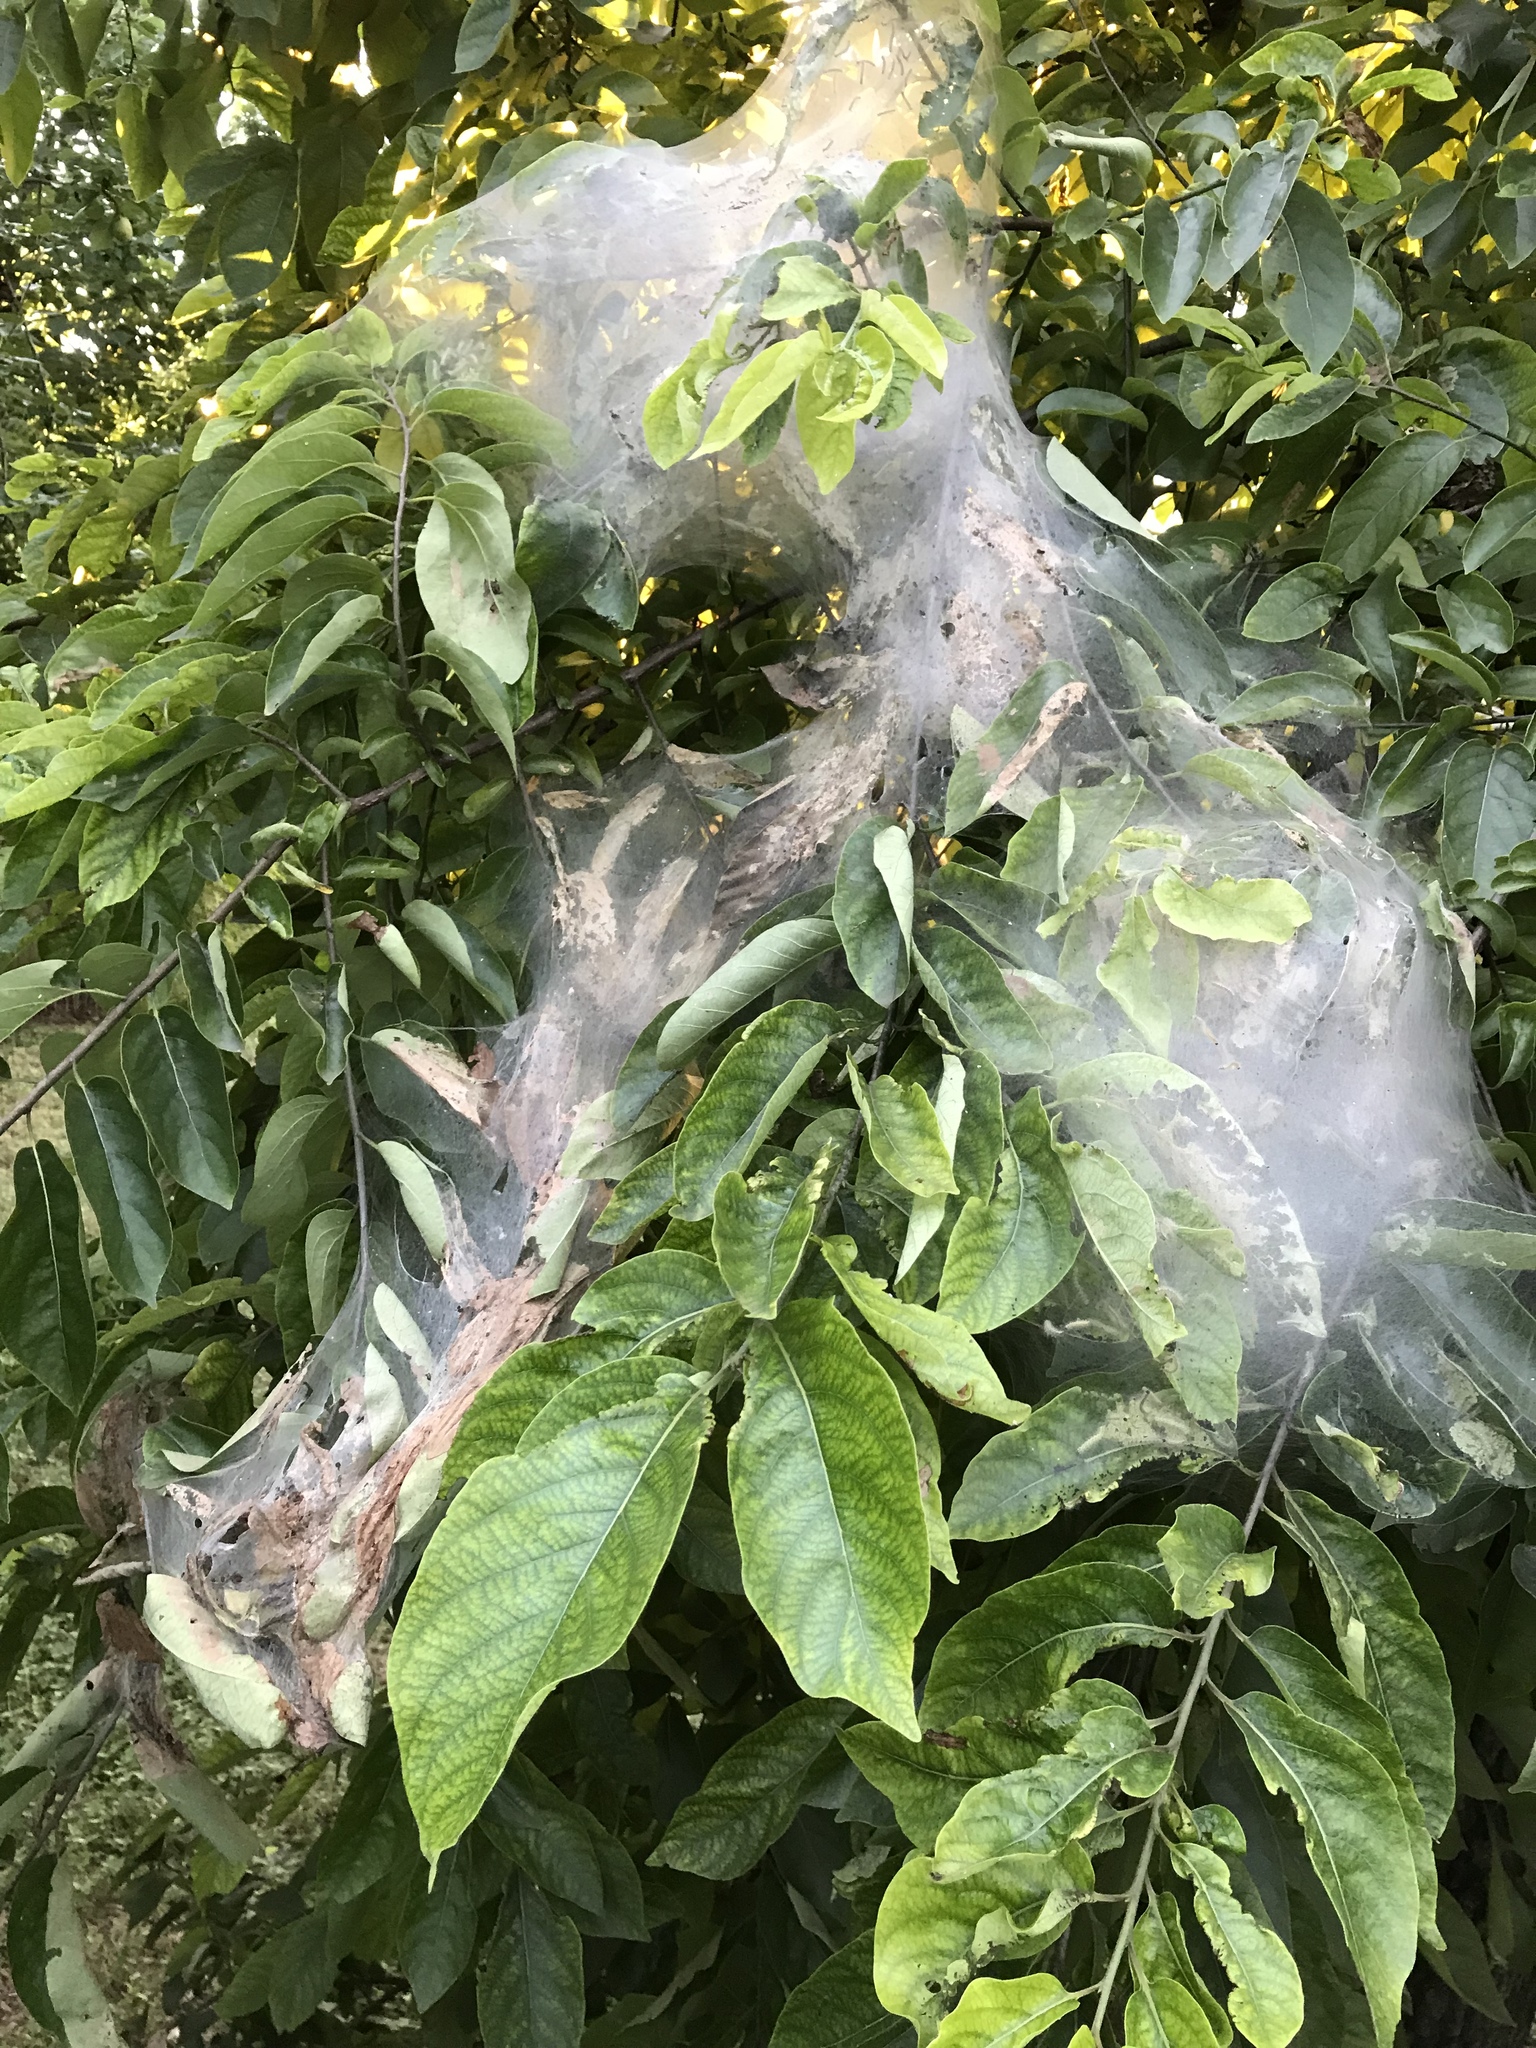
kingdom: Animalia
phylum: Arthropoda
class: Insecta
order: Lepidoptera
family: Erebidae
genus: Hyphantria
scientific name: Hyphantria cunea
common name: American white moth
